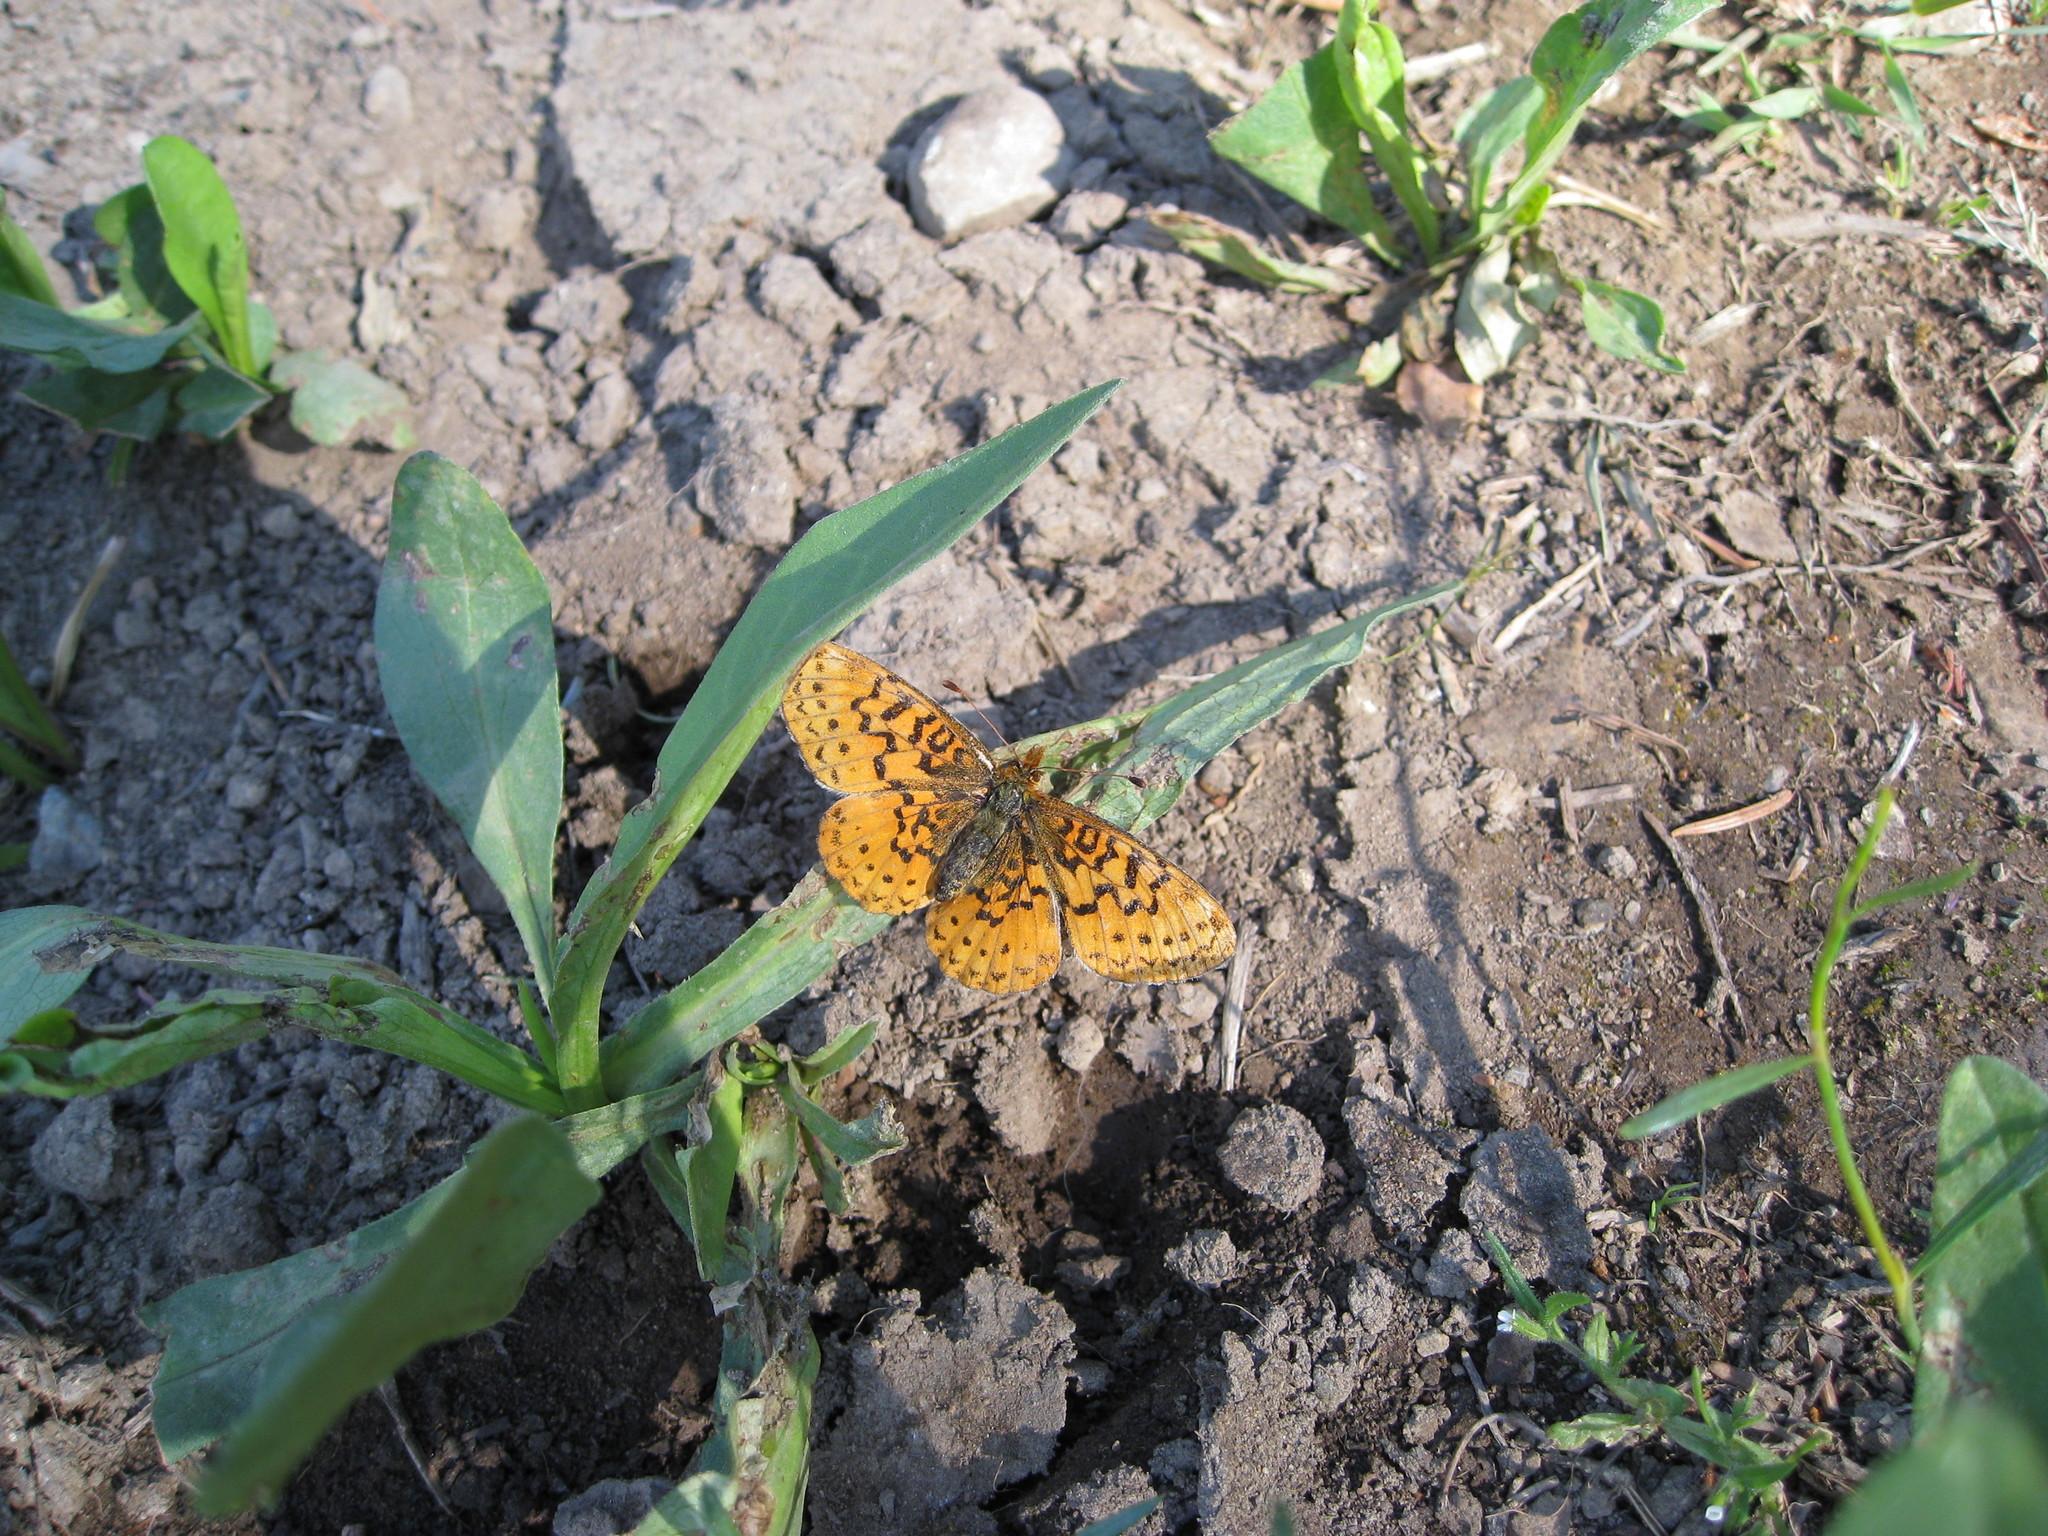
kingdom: Animalia
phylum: Arthropoda
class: Insecta
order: Lepidoptera
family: Nymphalidae
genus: Boloria
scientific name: Boloria epithore
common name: Pacific fritillary
